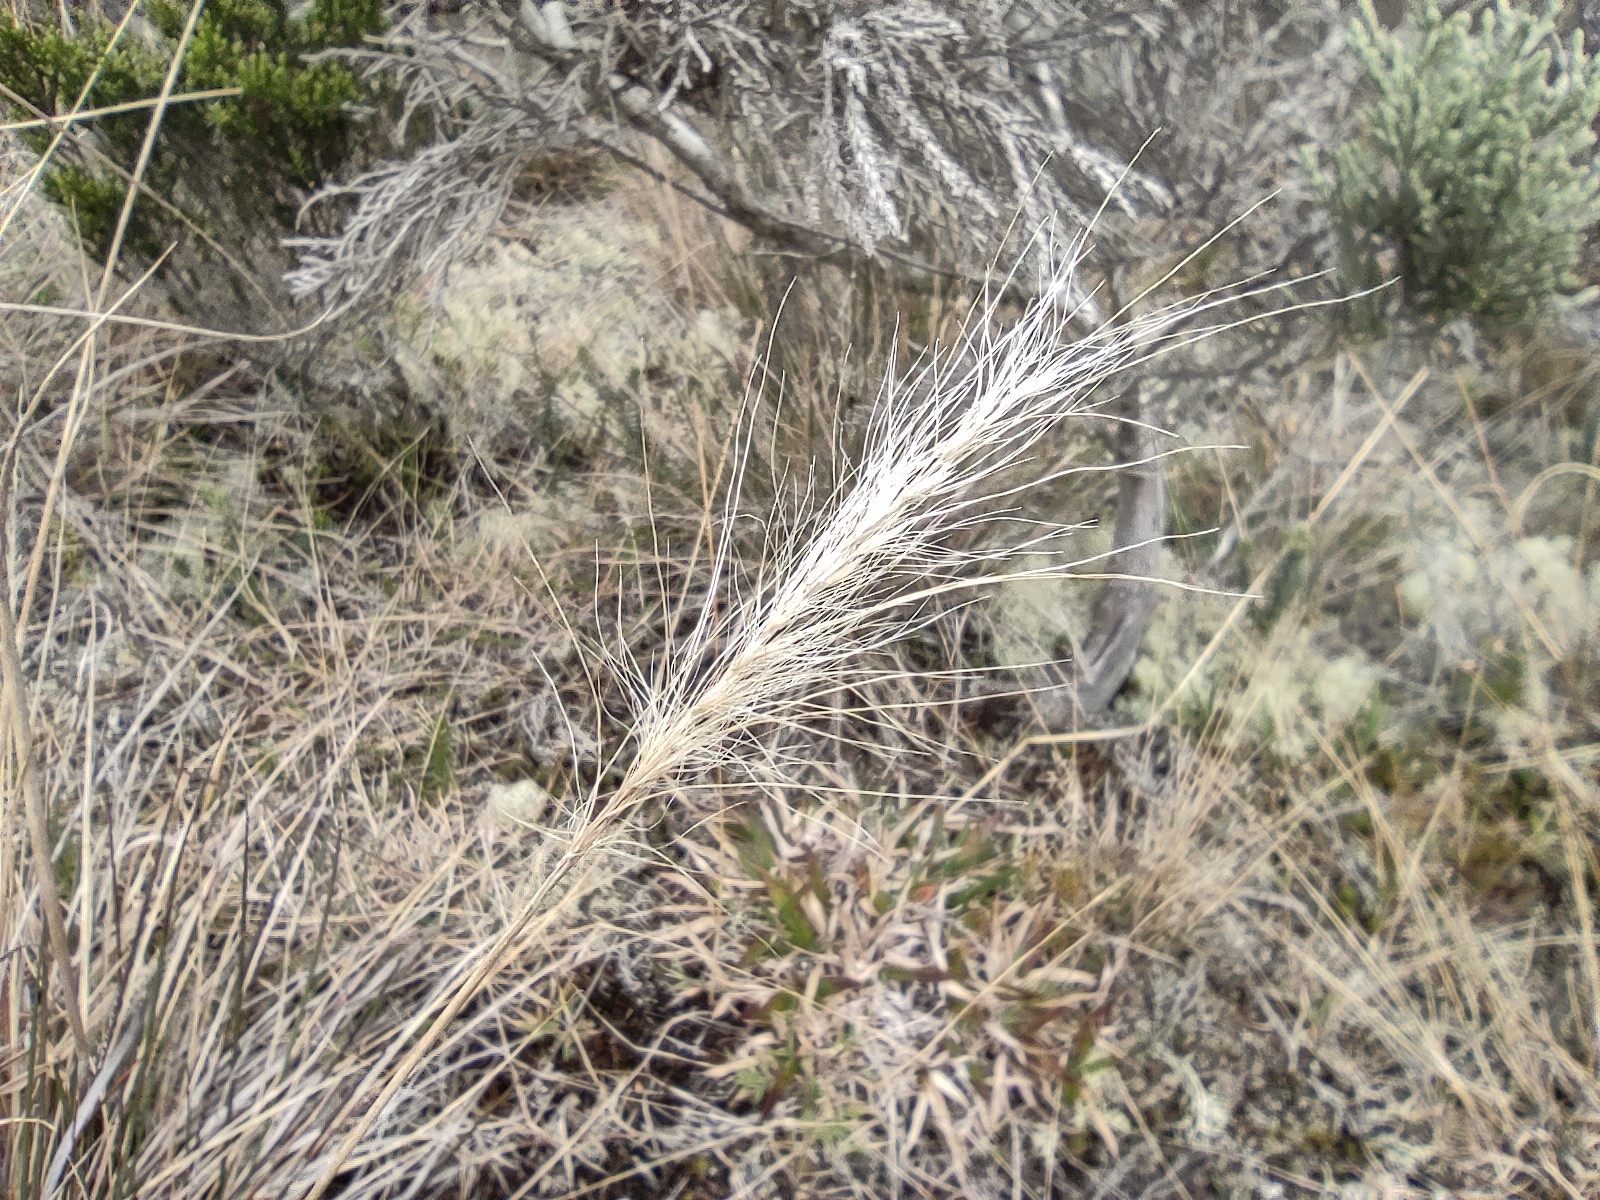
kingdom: Plantae
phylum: Tracheophyta
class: Liliopsida
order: Poales
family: Poaceae
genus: Cenchrus
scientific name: Cenchrus cafer
